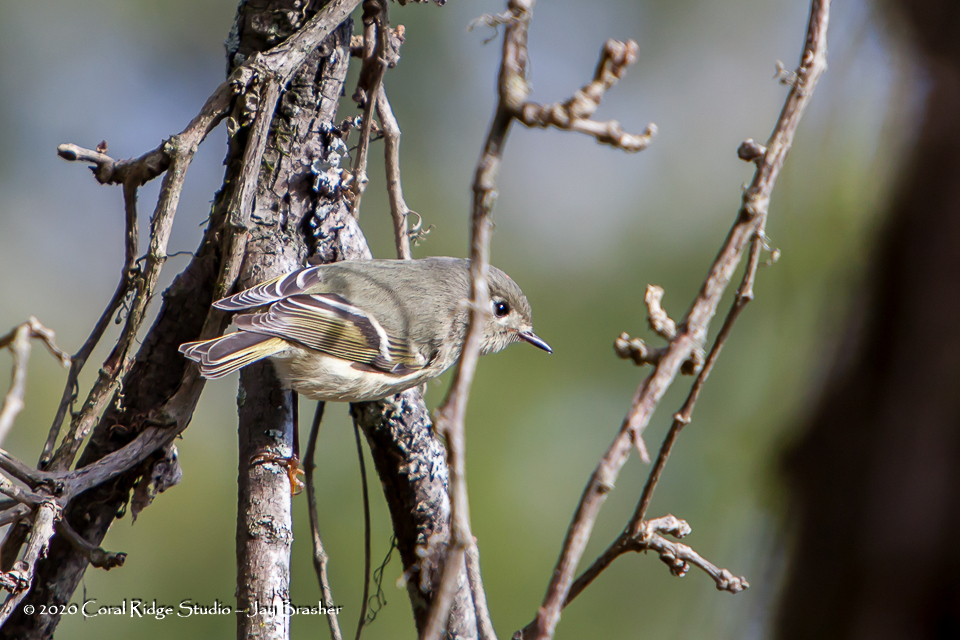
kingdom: Animalia
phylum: Chordata
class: Aves
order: Passeriformes
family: Regulidae
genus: Regulus
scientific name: Regulus calendula
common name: Ruby-crowned kinglet
